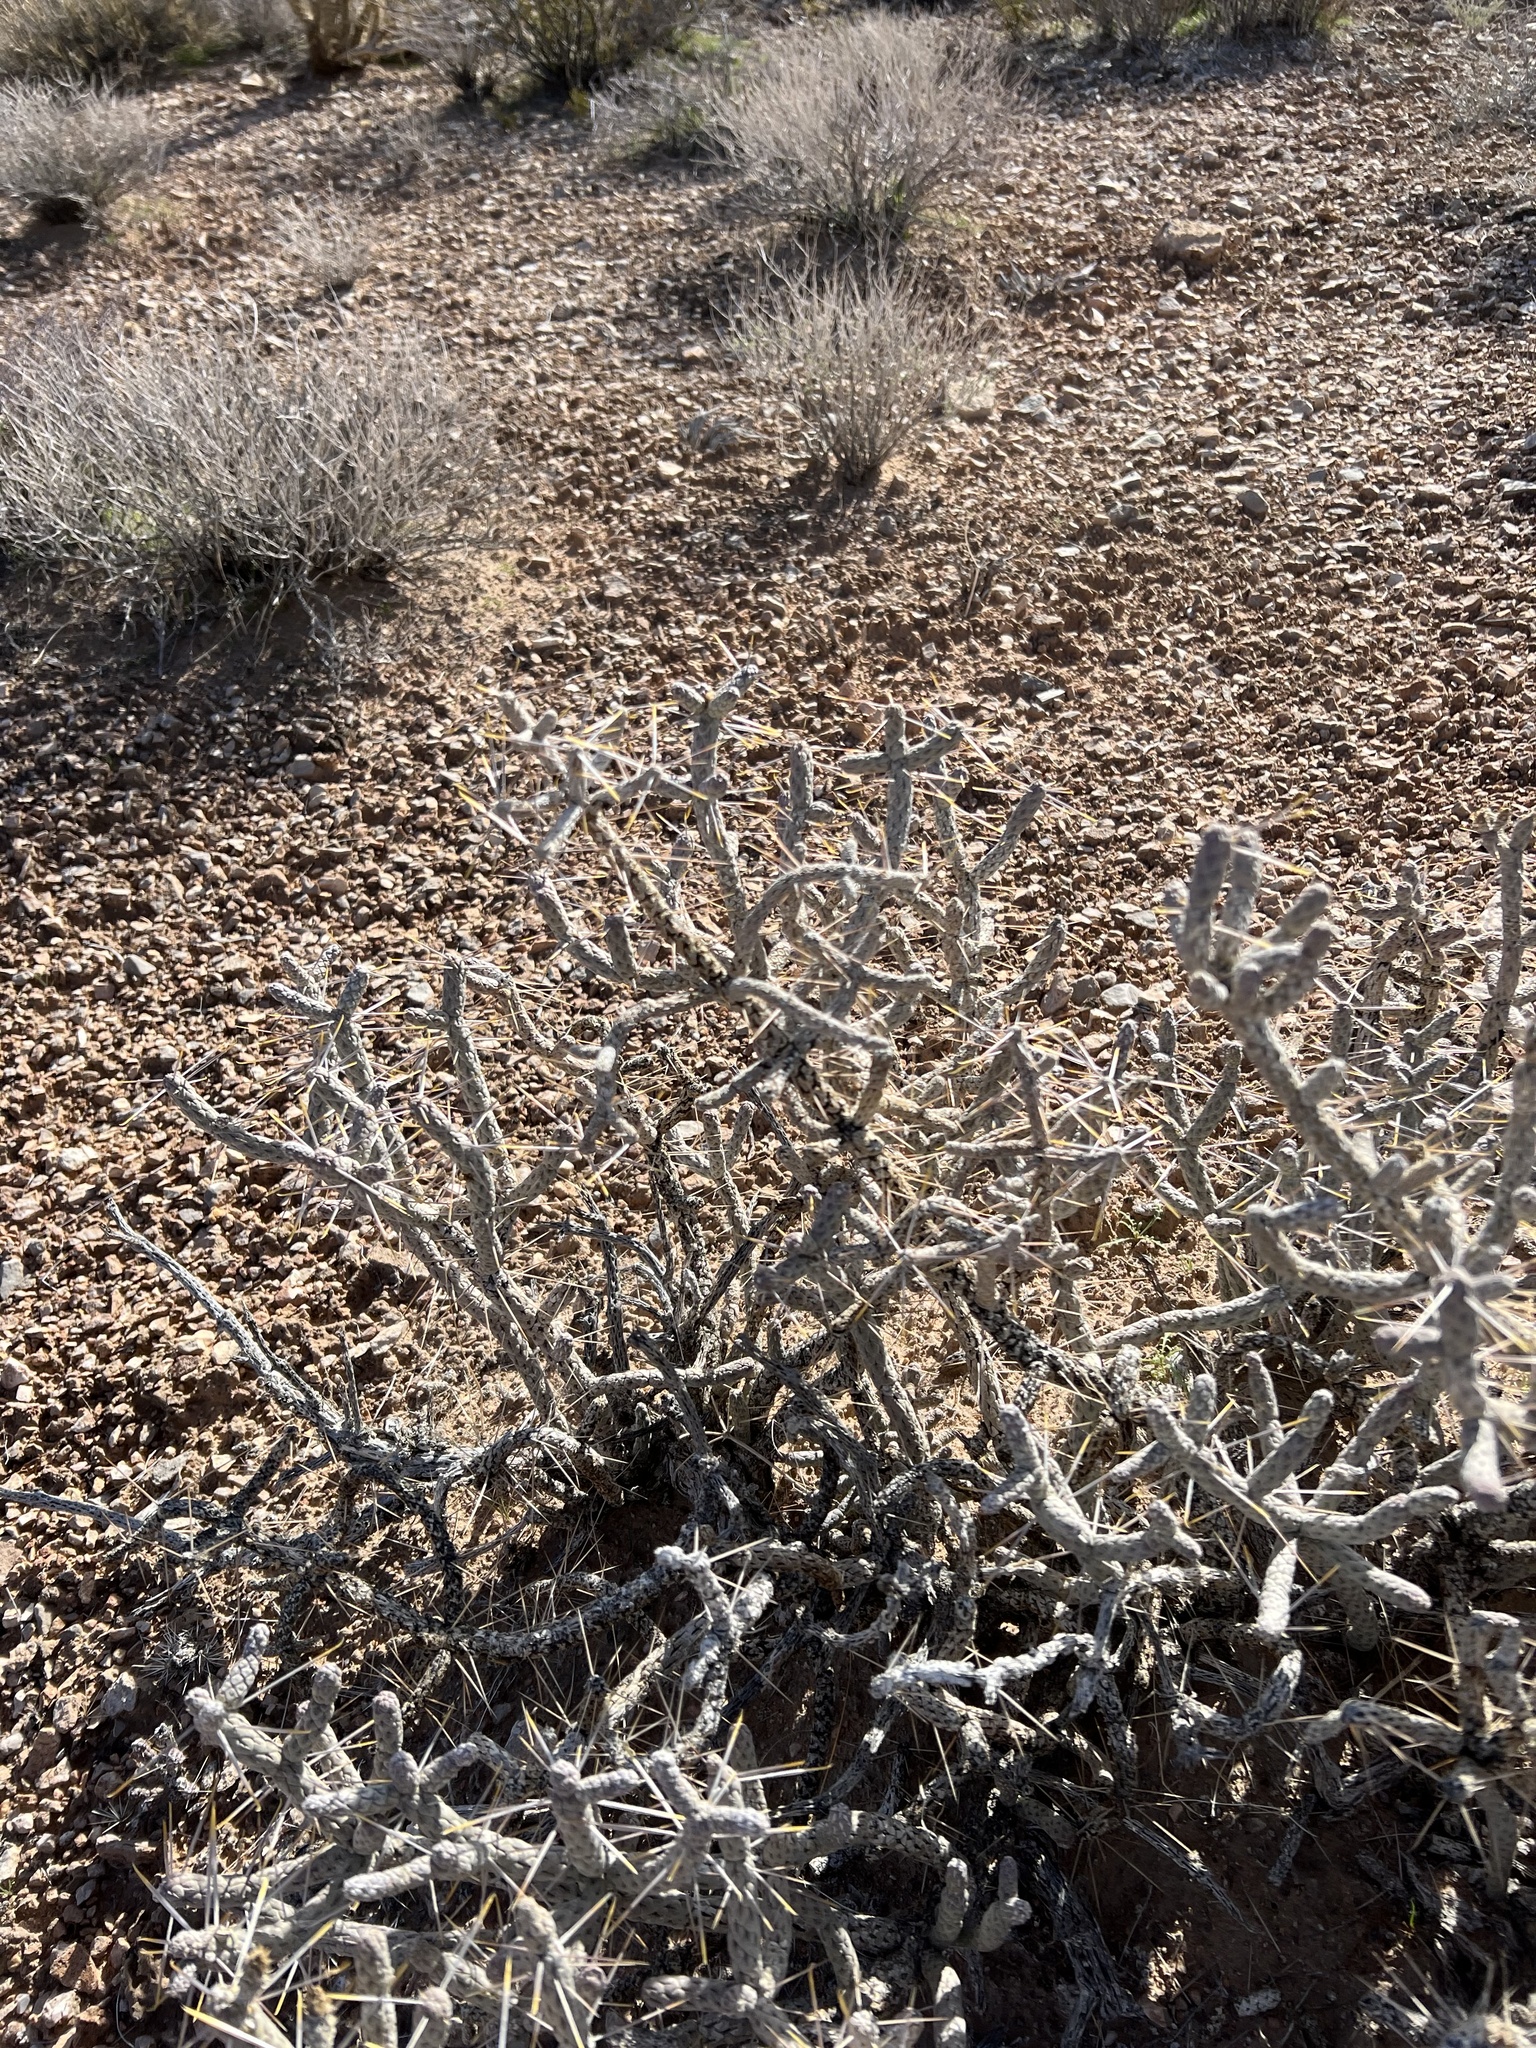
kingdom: Plantae
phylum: Tracheophyta
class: Magnoliopsida
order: Caryophyllales
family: Cactaceae
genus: Cylindropuntia
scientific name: Cylindropuntia ramosissima
